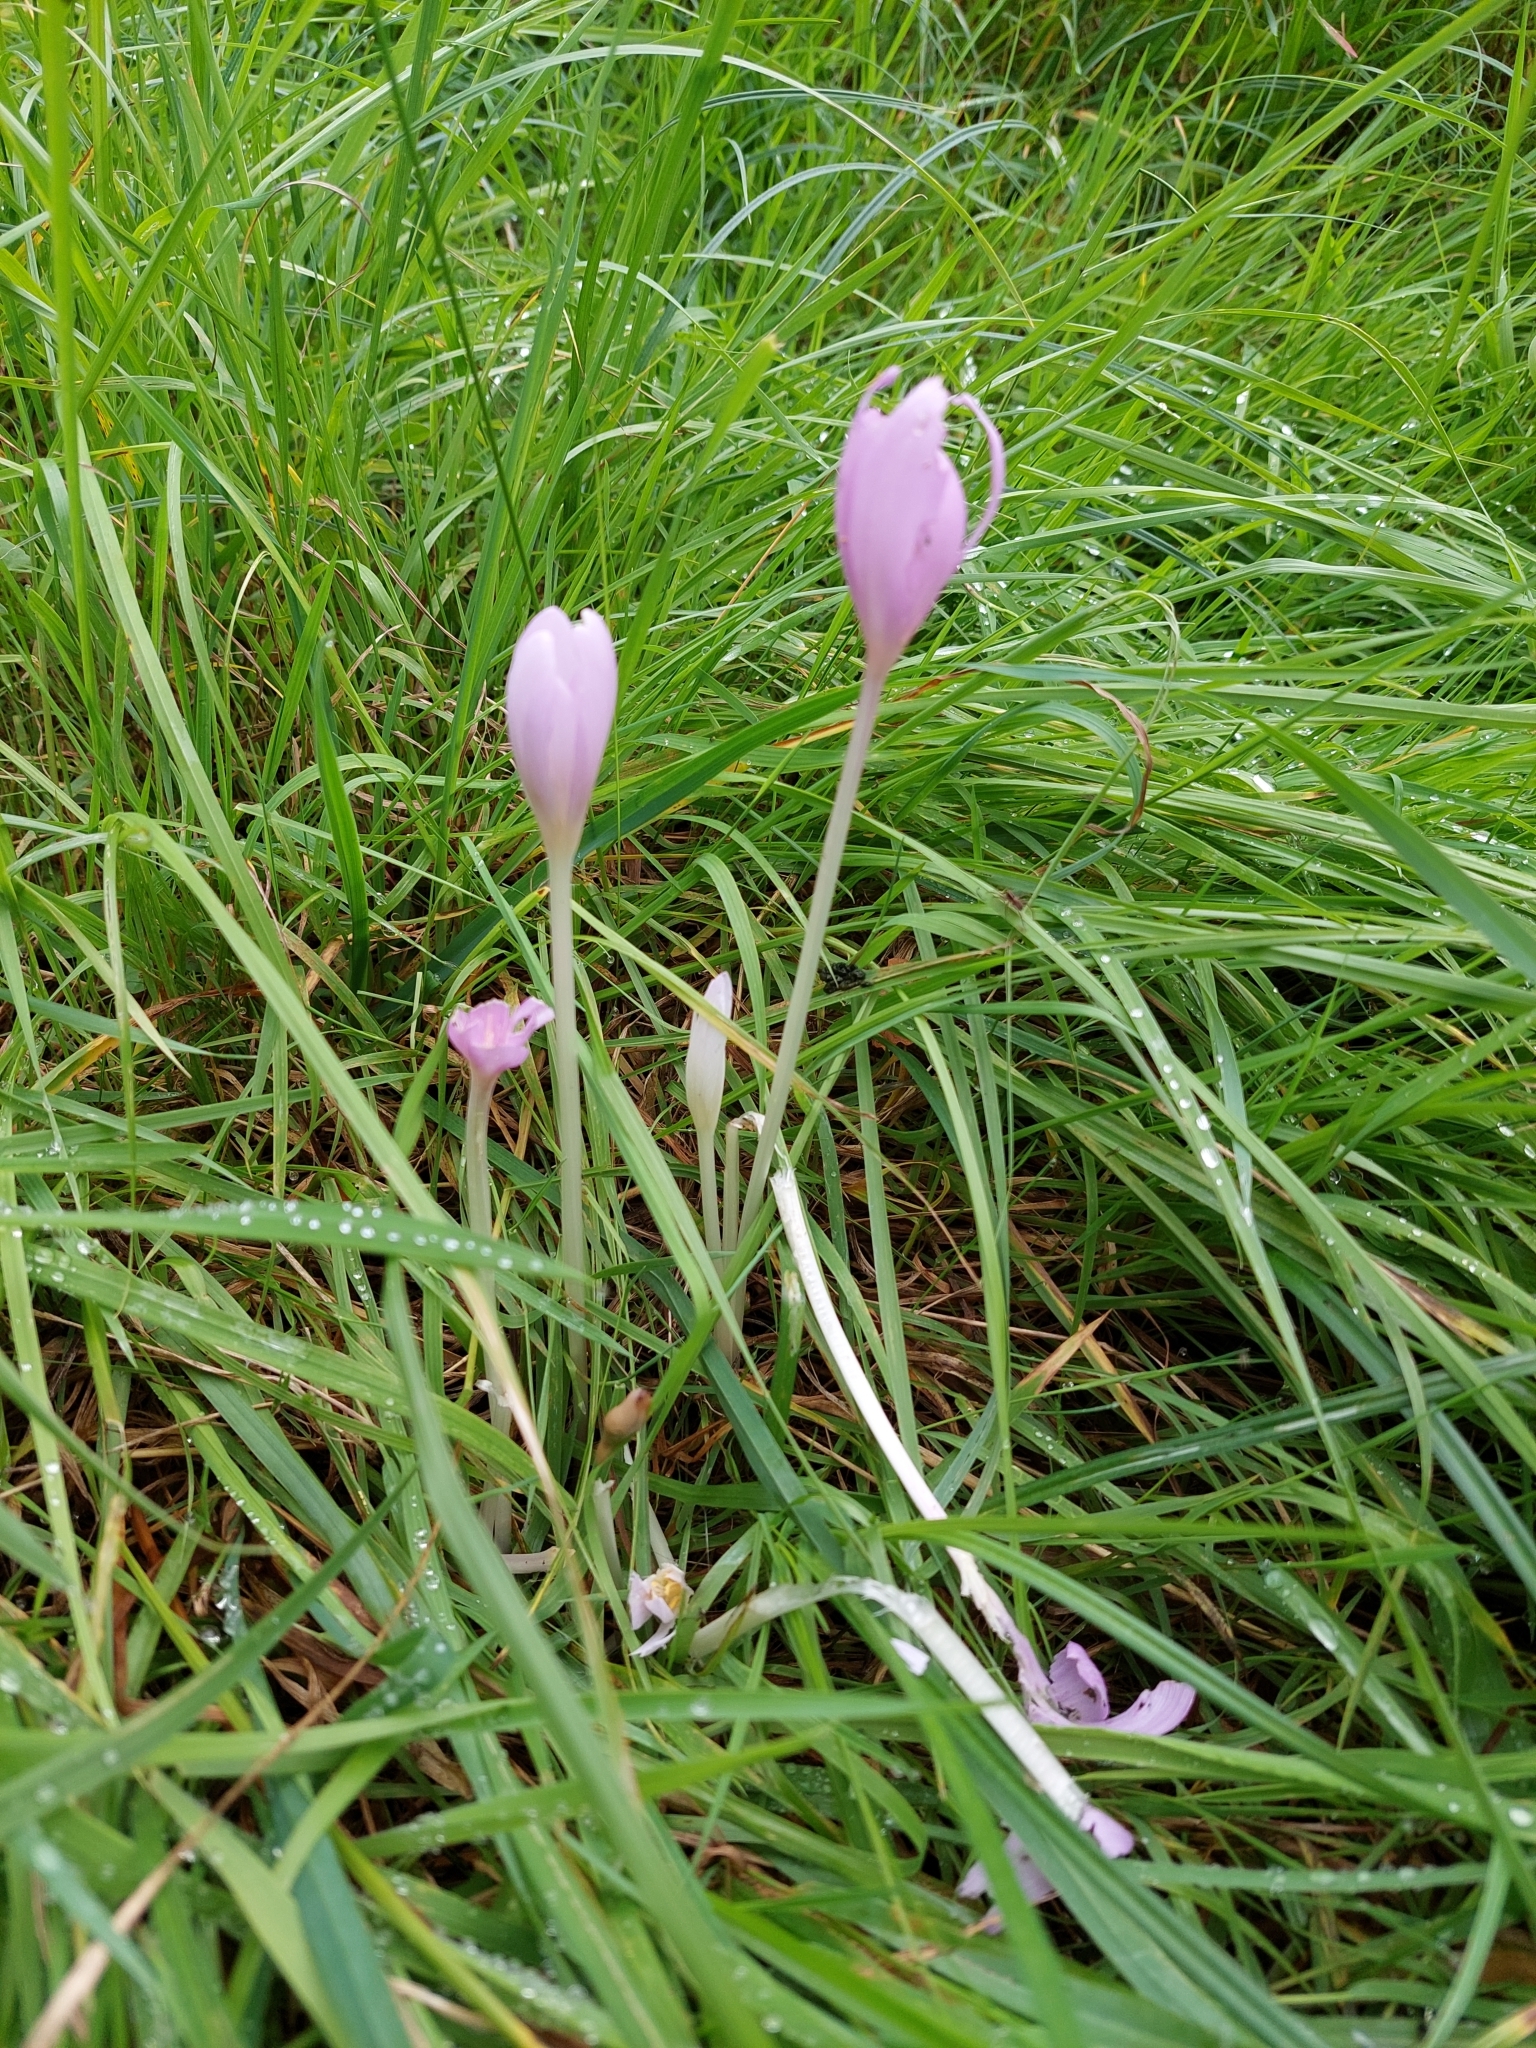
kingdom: Plantae
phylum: Tracheophyta
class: Liliopsida
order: Liliales
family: Colchicaceae
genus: Colchicum
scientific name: Colchicum autumnale
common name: Autumn crocus
